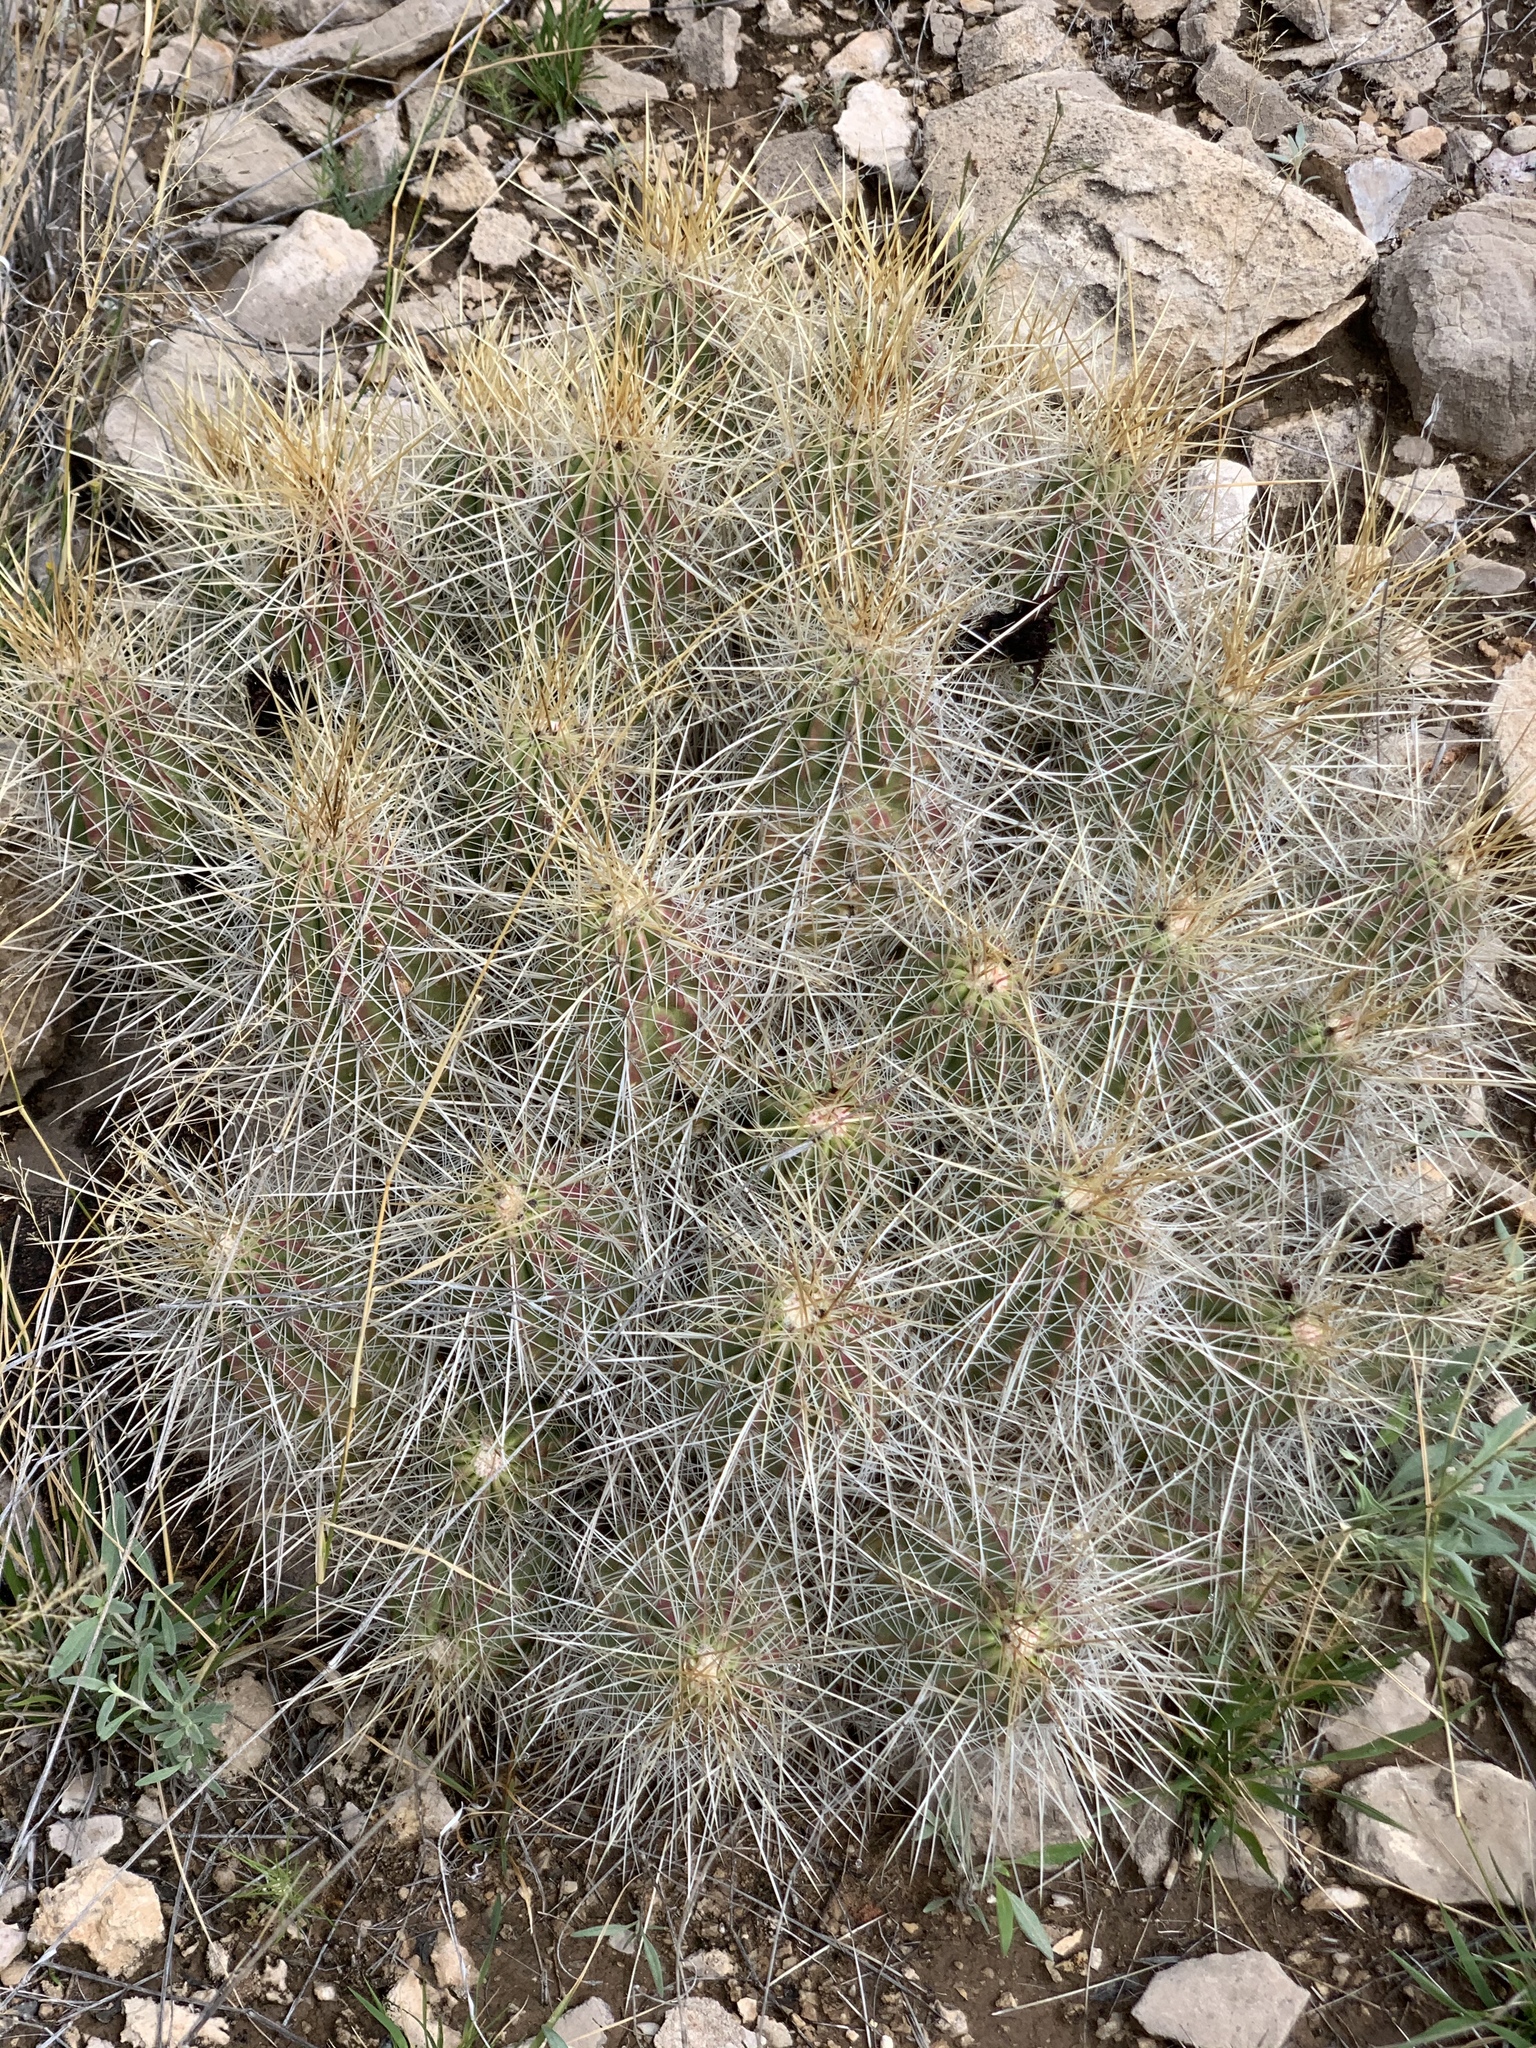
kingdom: Plantae
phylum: Tracheophyta
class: Magnoliopsida
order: Caryophyllales
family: Cactaceae
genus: Echinocereus
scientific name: Echinocereus stramineus
